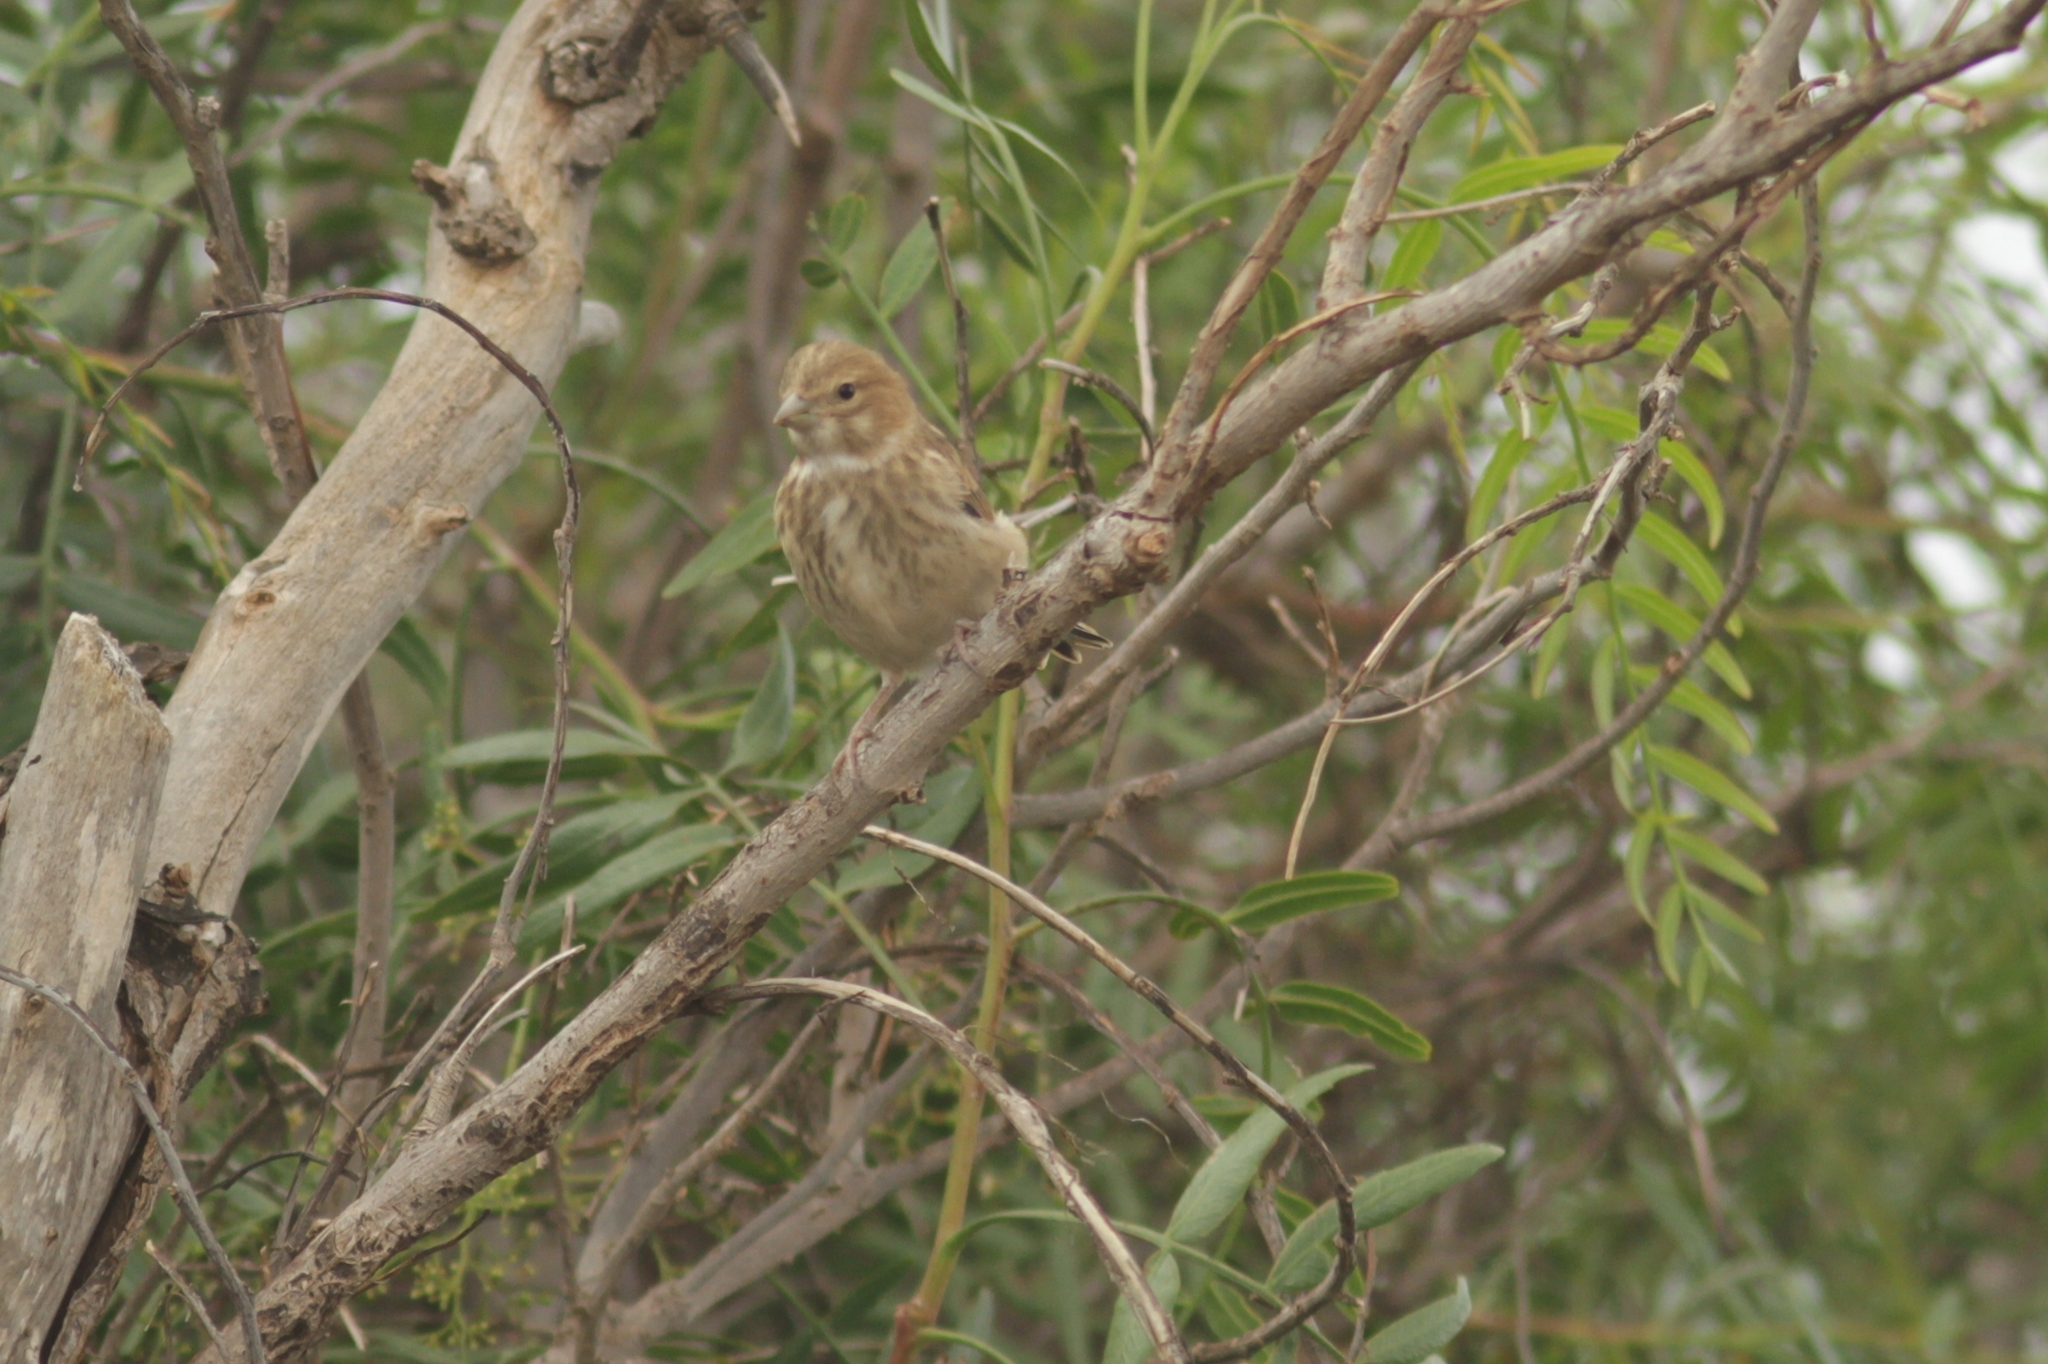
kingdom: Animalia
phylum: Chordata
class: Aves
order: Passeriformes
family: Fringillidae
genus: Linaria
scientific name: Linaria cannabina
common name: Common linnet
